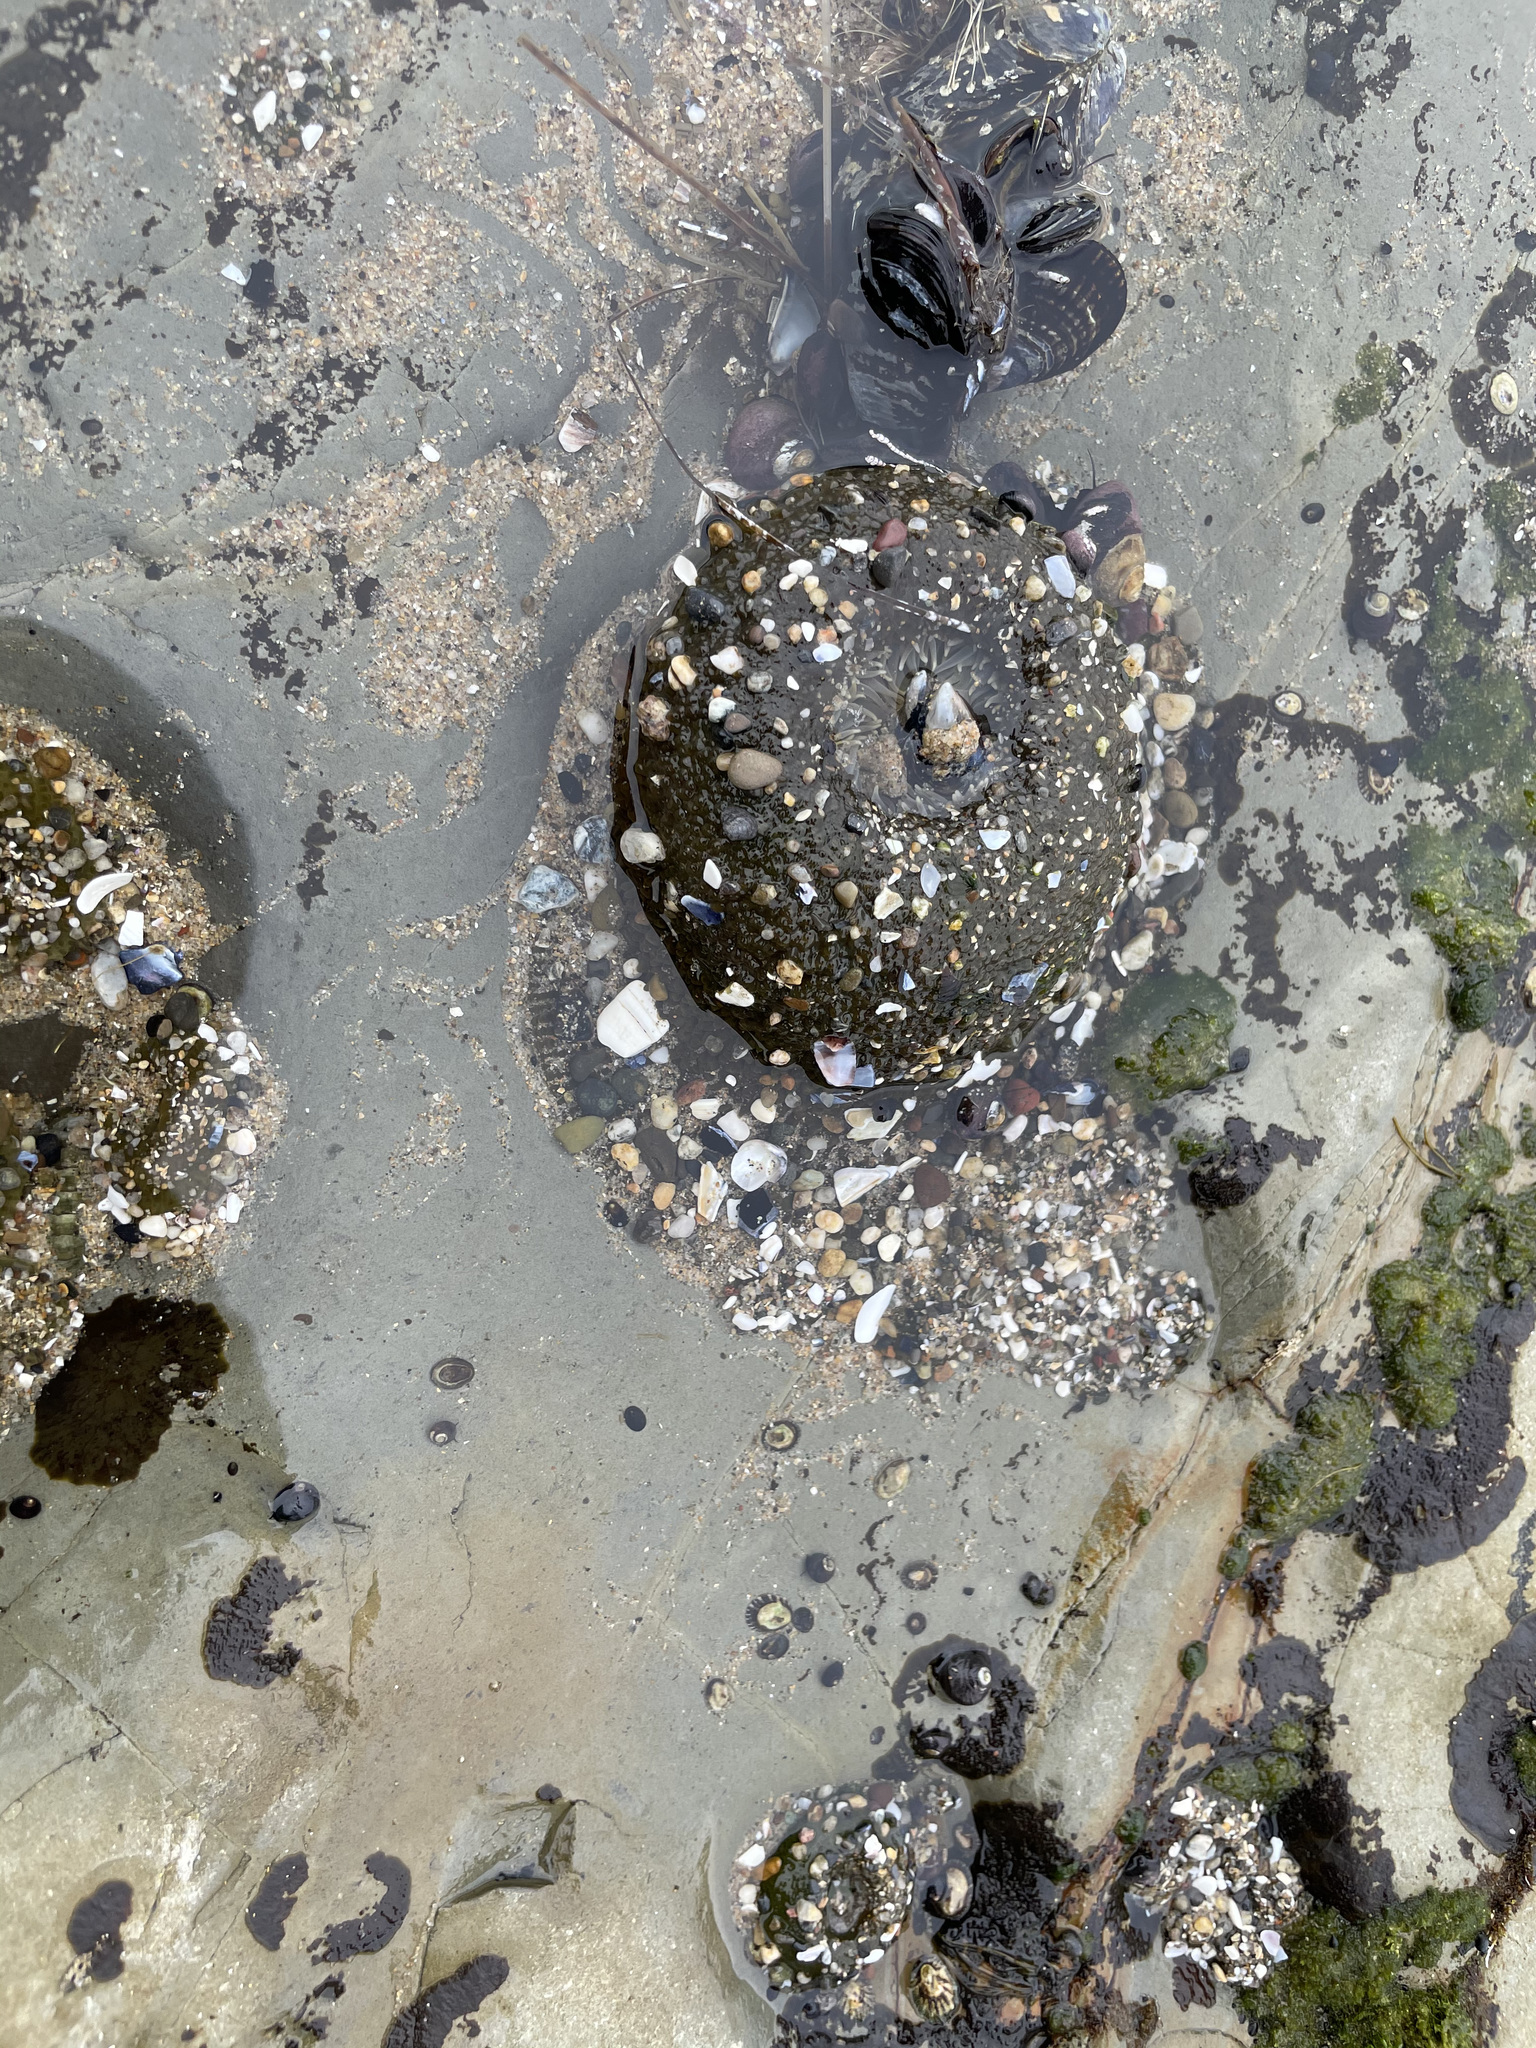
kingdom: Animalia
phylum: Cnidaria
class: Anthozoa
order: Actiniaria
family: Actiniidae
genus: Anthopleura
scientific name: Anthopleura xanthogrammica
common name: Giant green anemone
